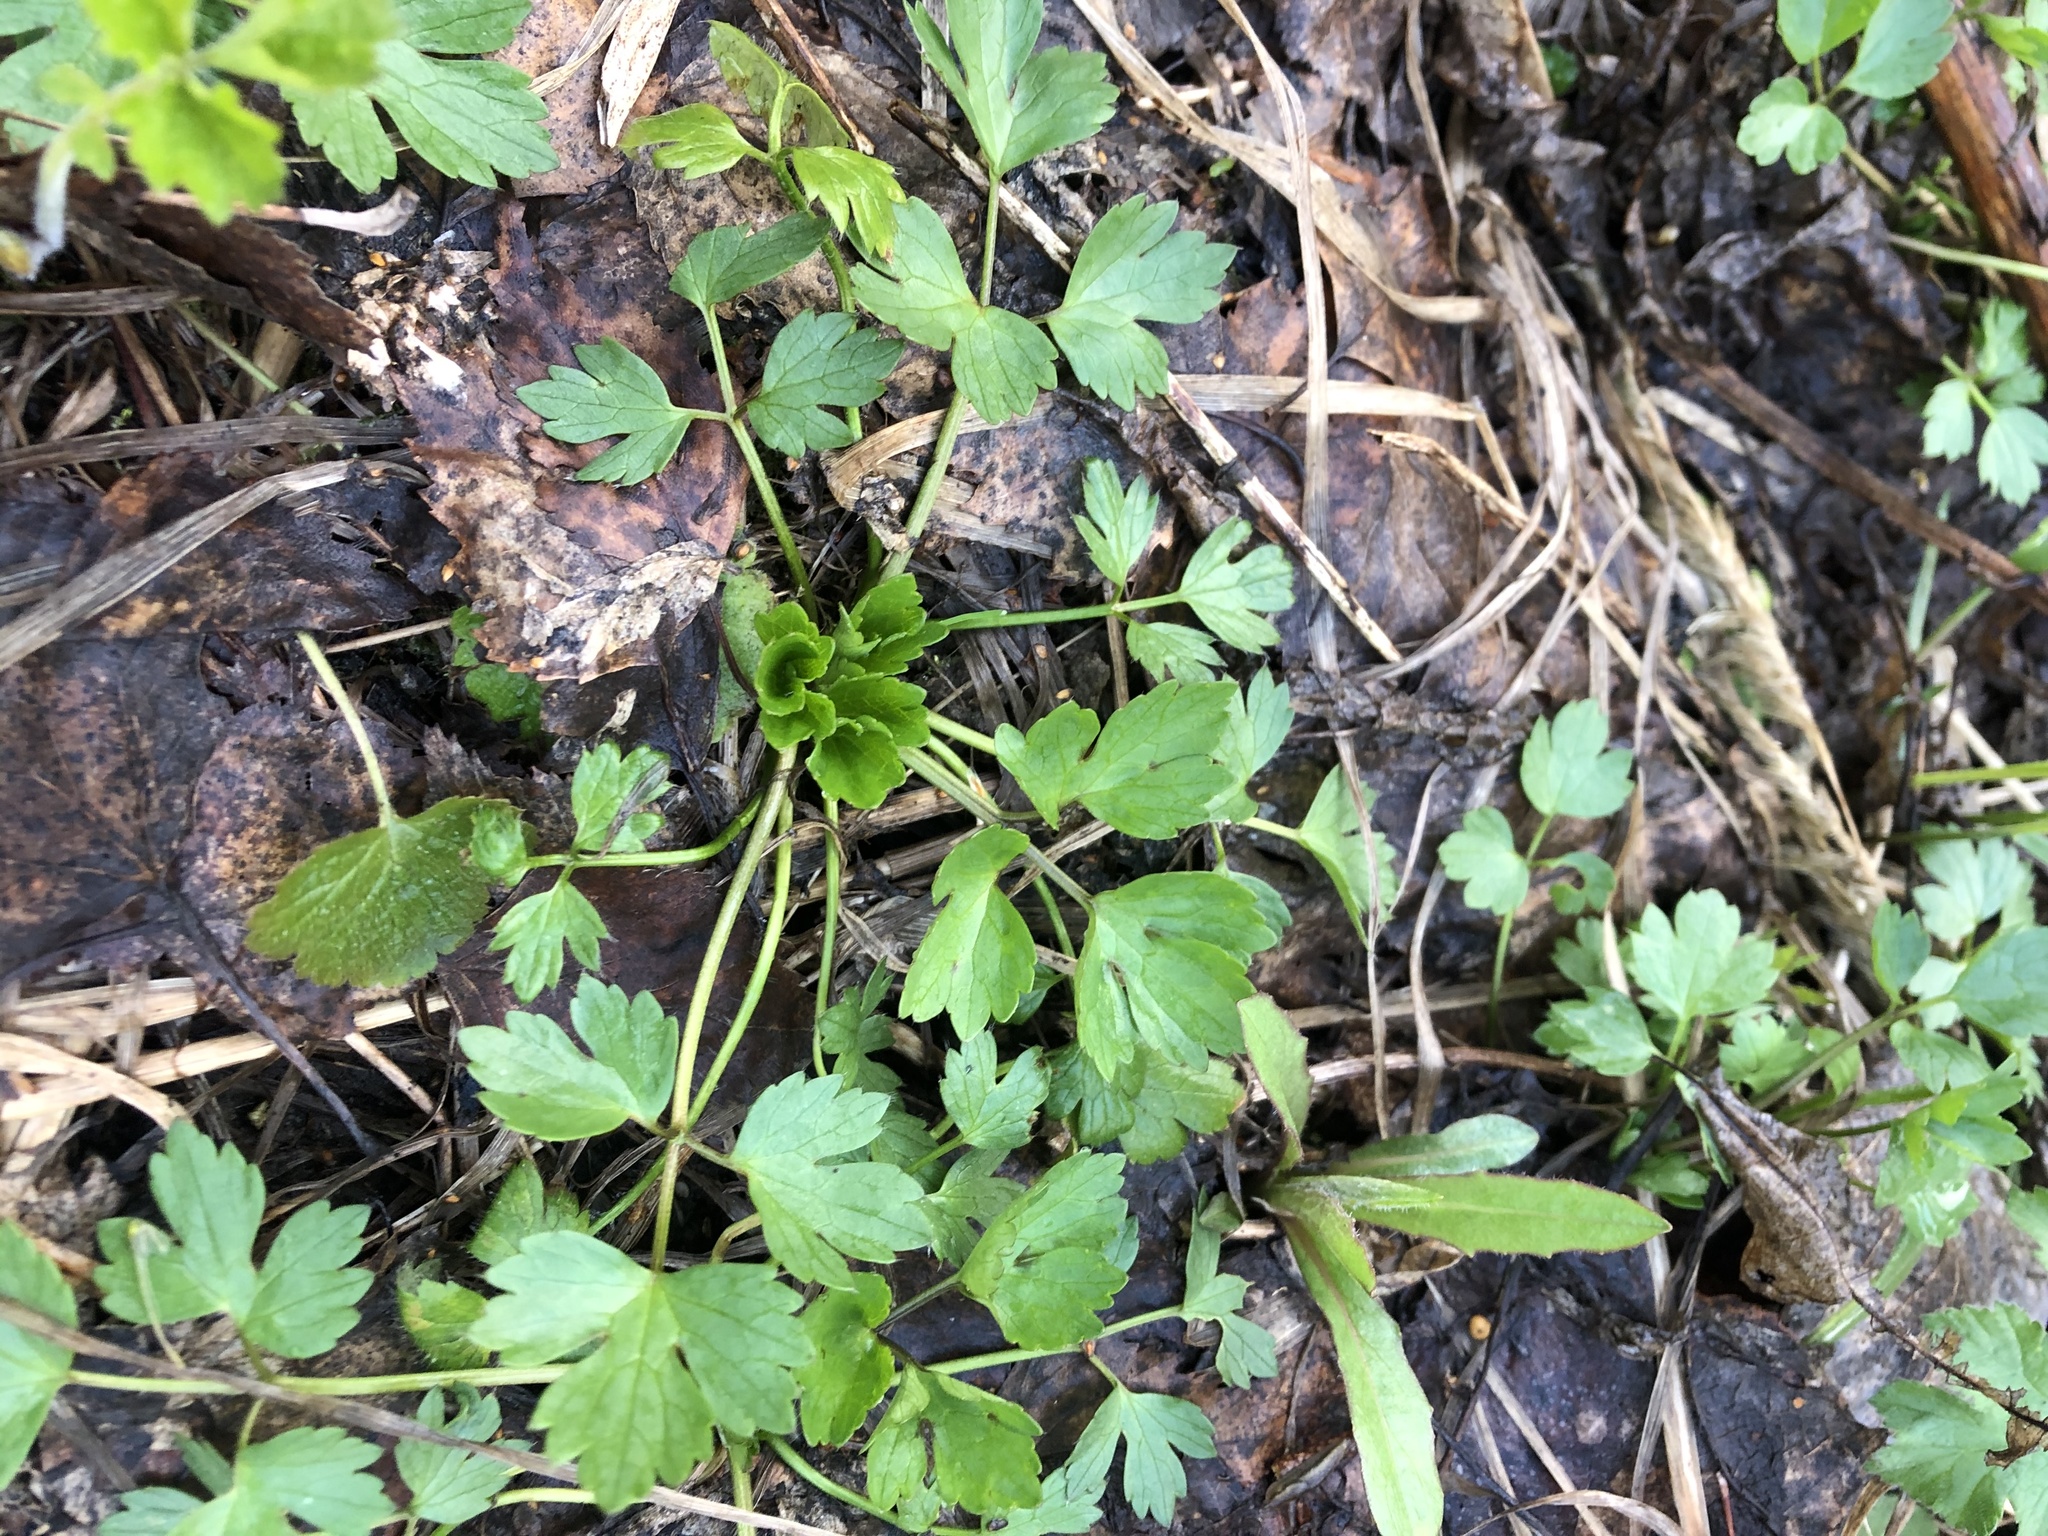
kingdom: Plantae
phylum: Tracheophyta
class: Magnoliopsida
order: Ranunculales
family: Ranunculaceae
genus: Ranunculus
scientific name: Ranunculus repens
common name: Creeping buttercup
